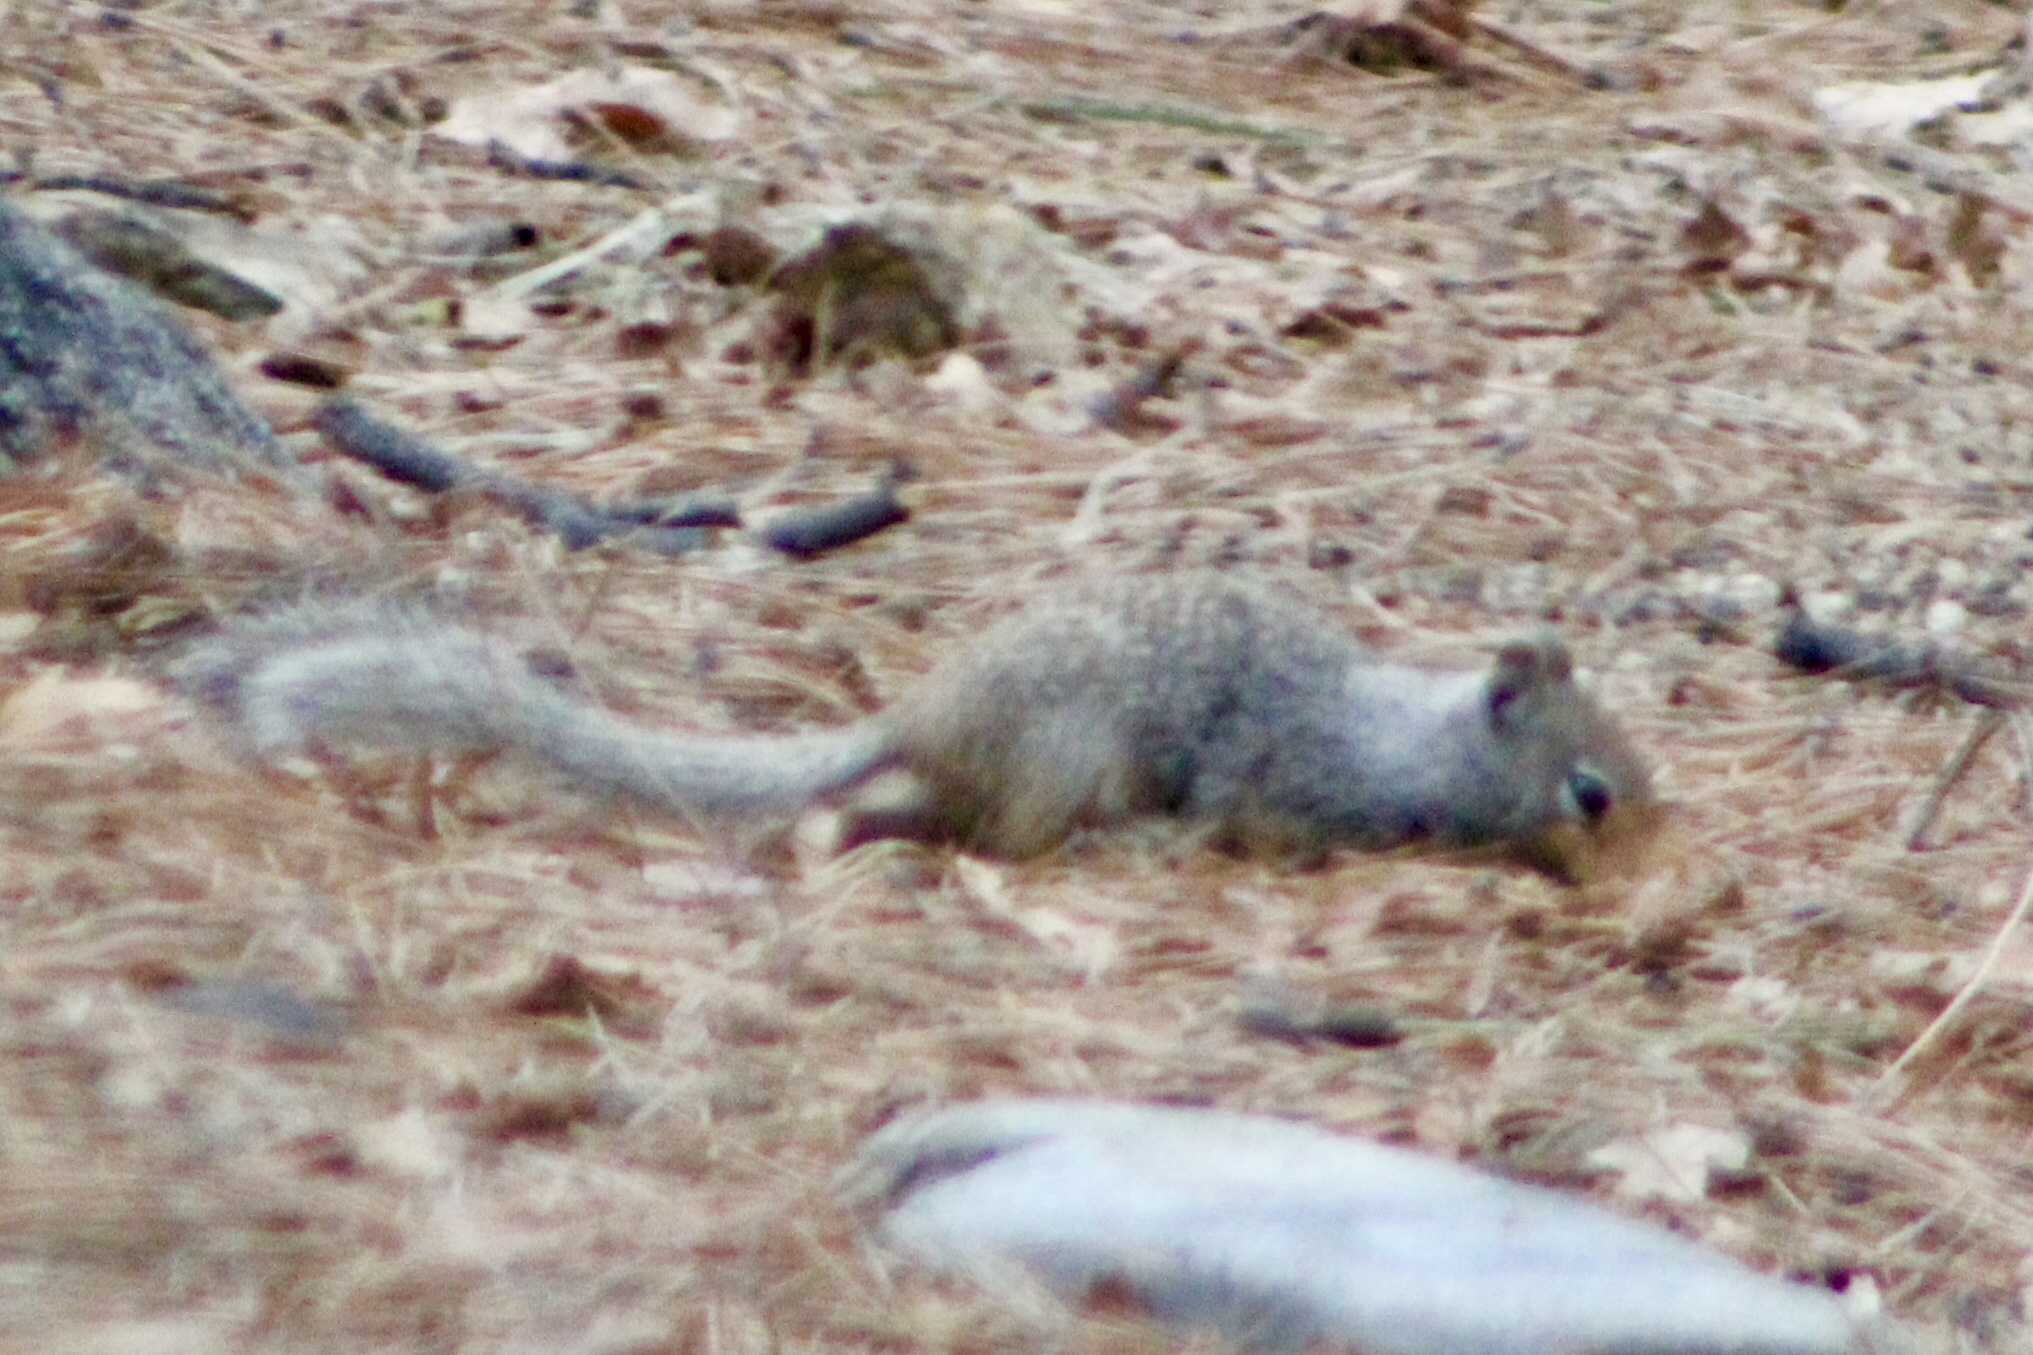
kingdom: Animalia
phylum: Chordata
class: Mammalia
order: Rodentia
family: Sciuridae
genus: Otospermophilus
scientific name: Otospermophilus variegatus
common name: Rock squirrel
